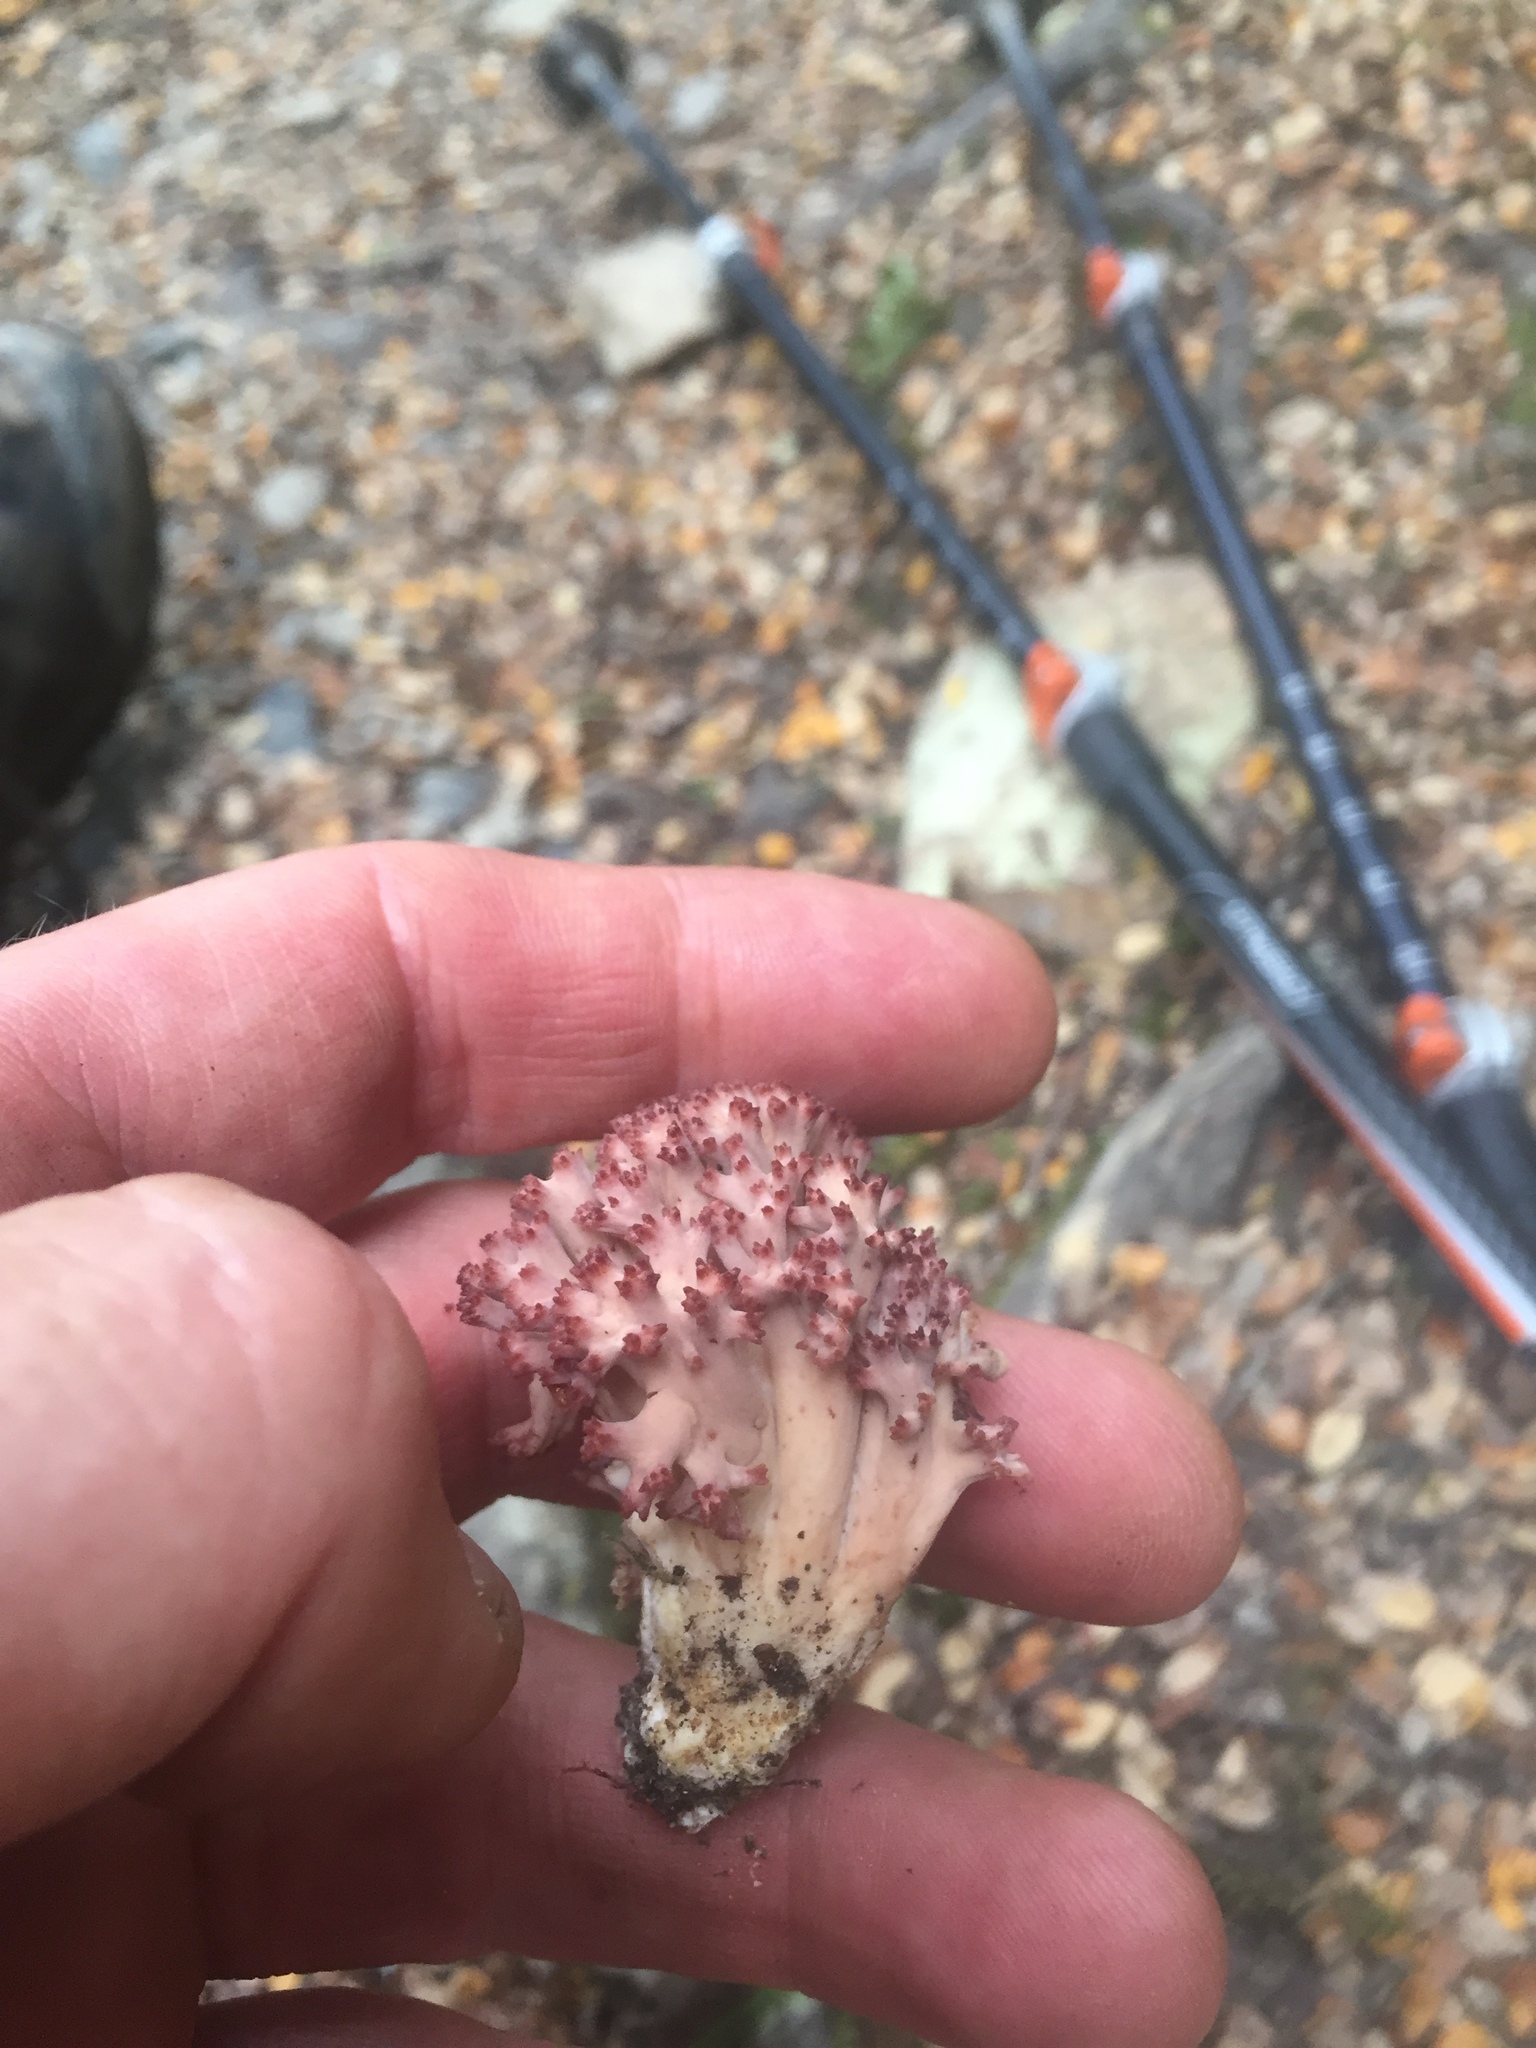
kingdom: Fungi
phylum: Basidiomycota
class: Agaricomycetes
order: Gomphales
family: Gomphaceae
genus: Ramaria
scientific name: Ramaria
